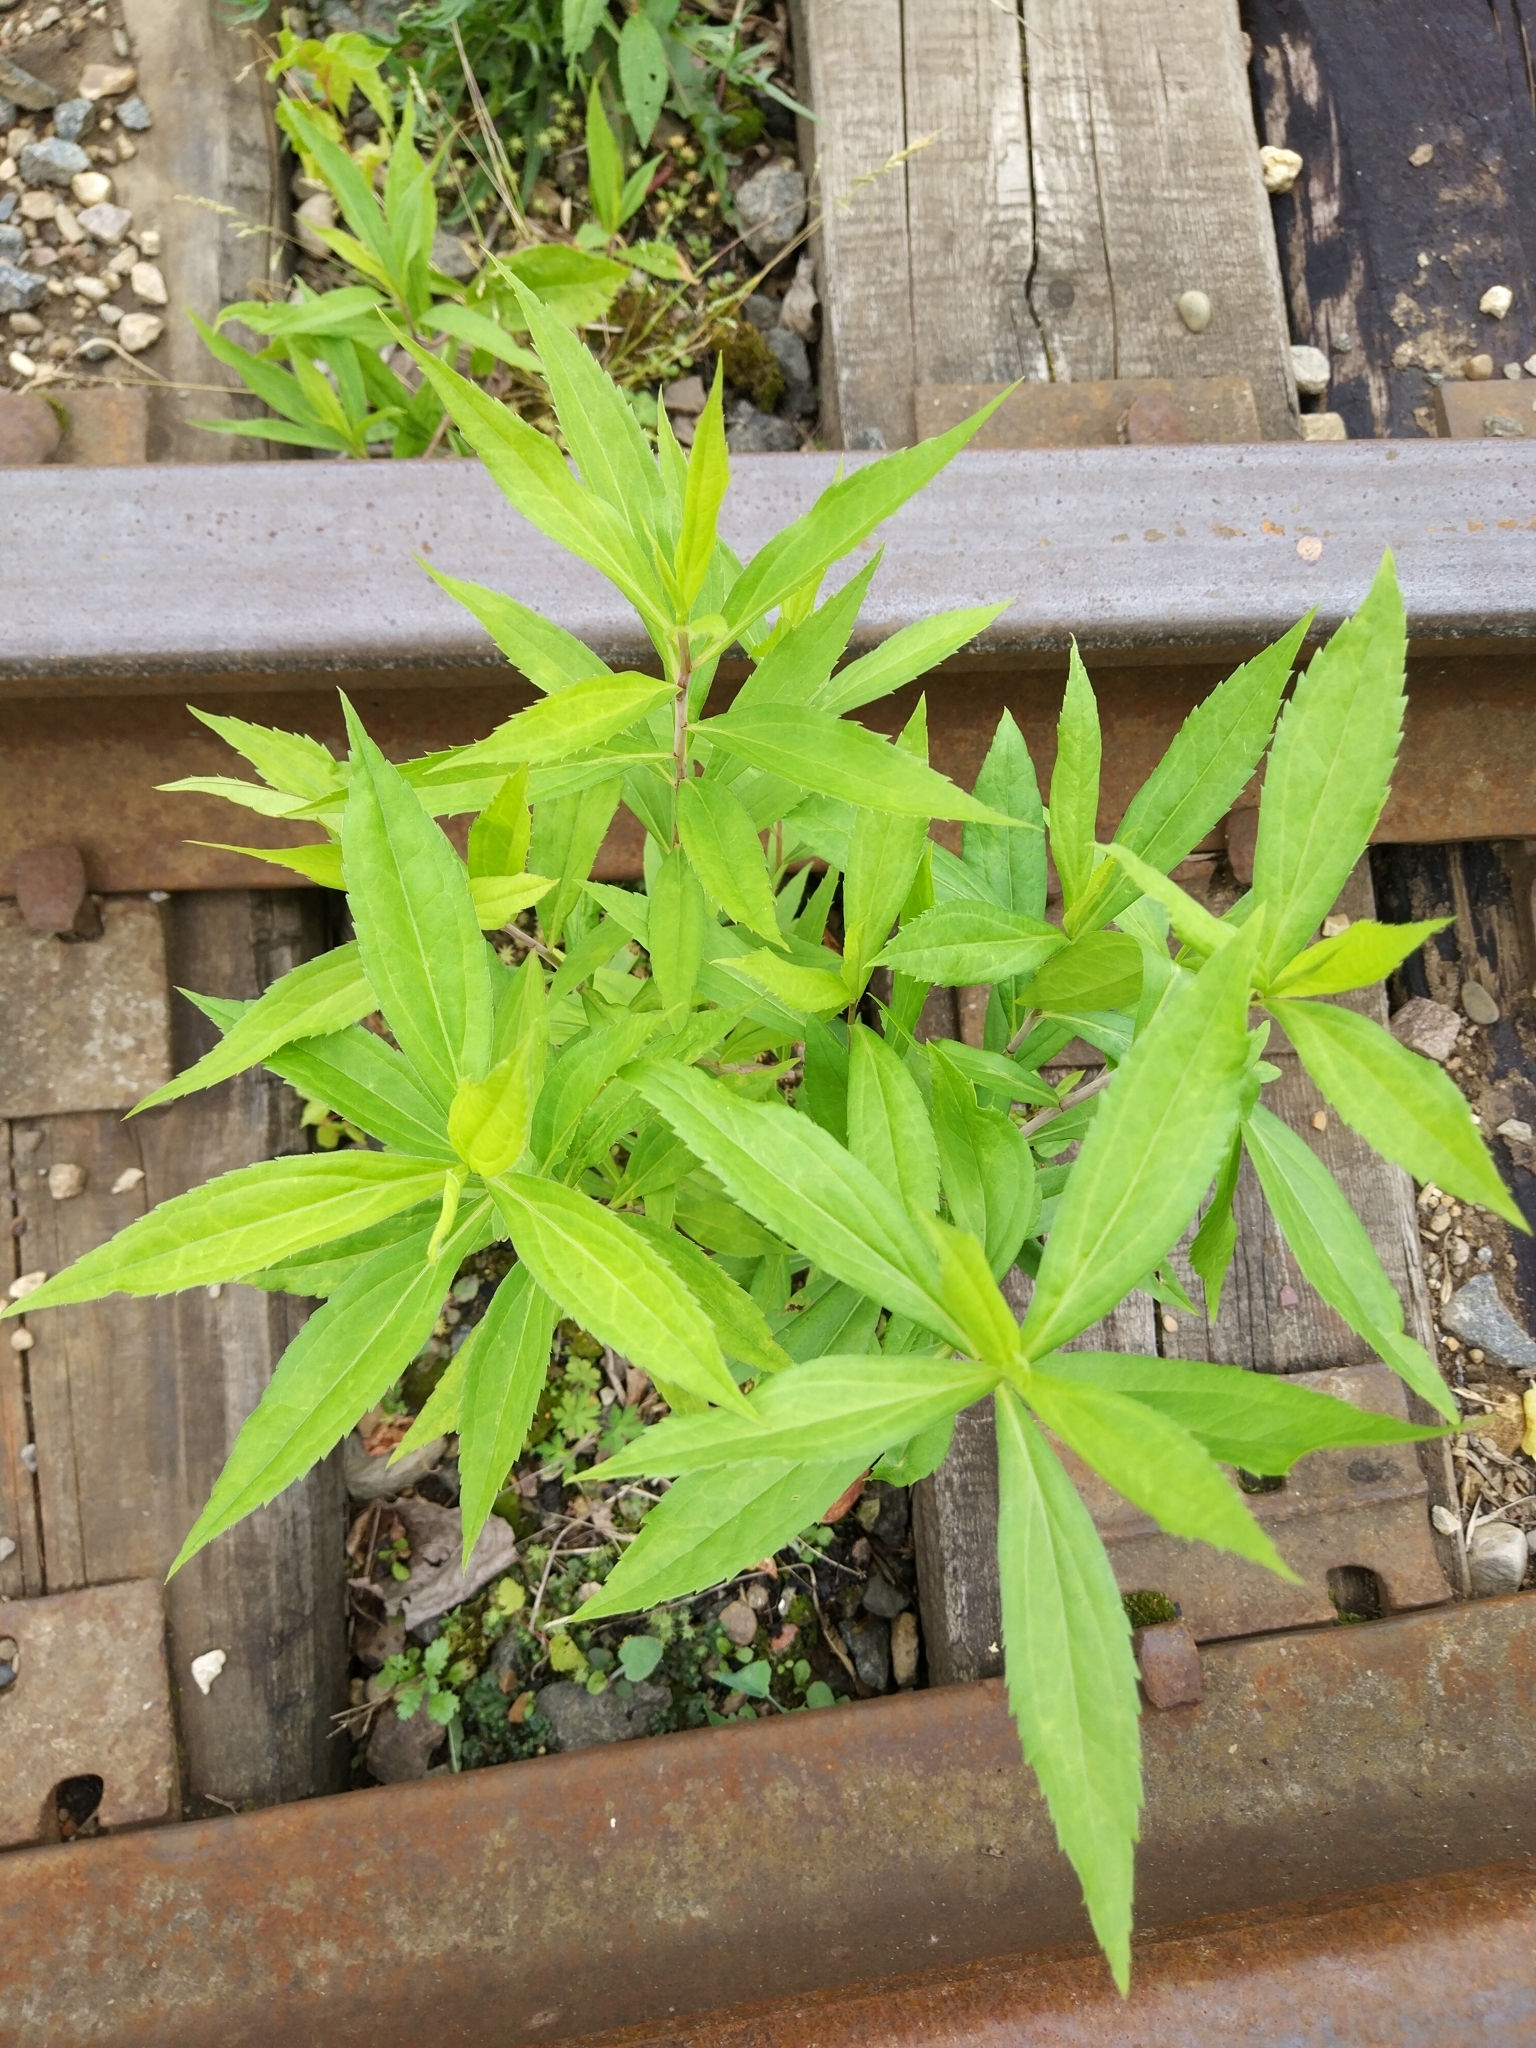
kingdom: Plantae
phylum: Tracheophyta
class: Magnoliopsida
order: Asterales
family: Asteraceae
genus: Solidago
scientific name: Solidago gigantea
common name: Giant goldenrod
